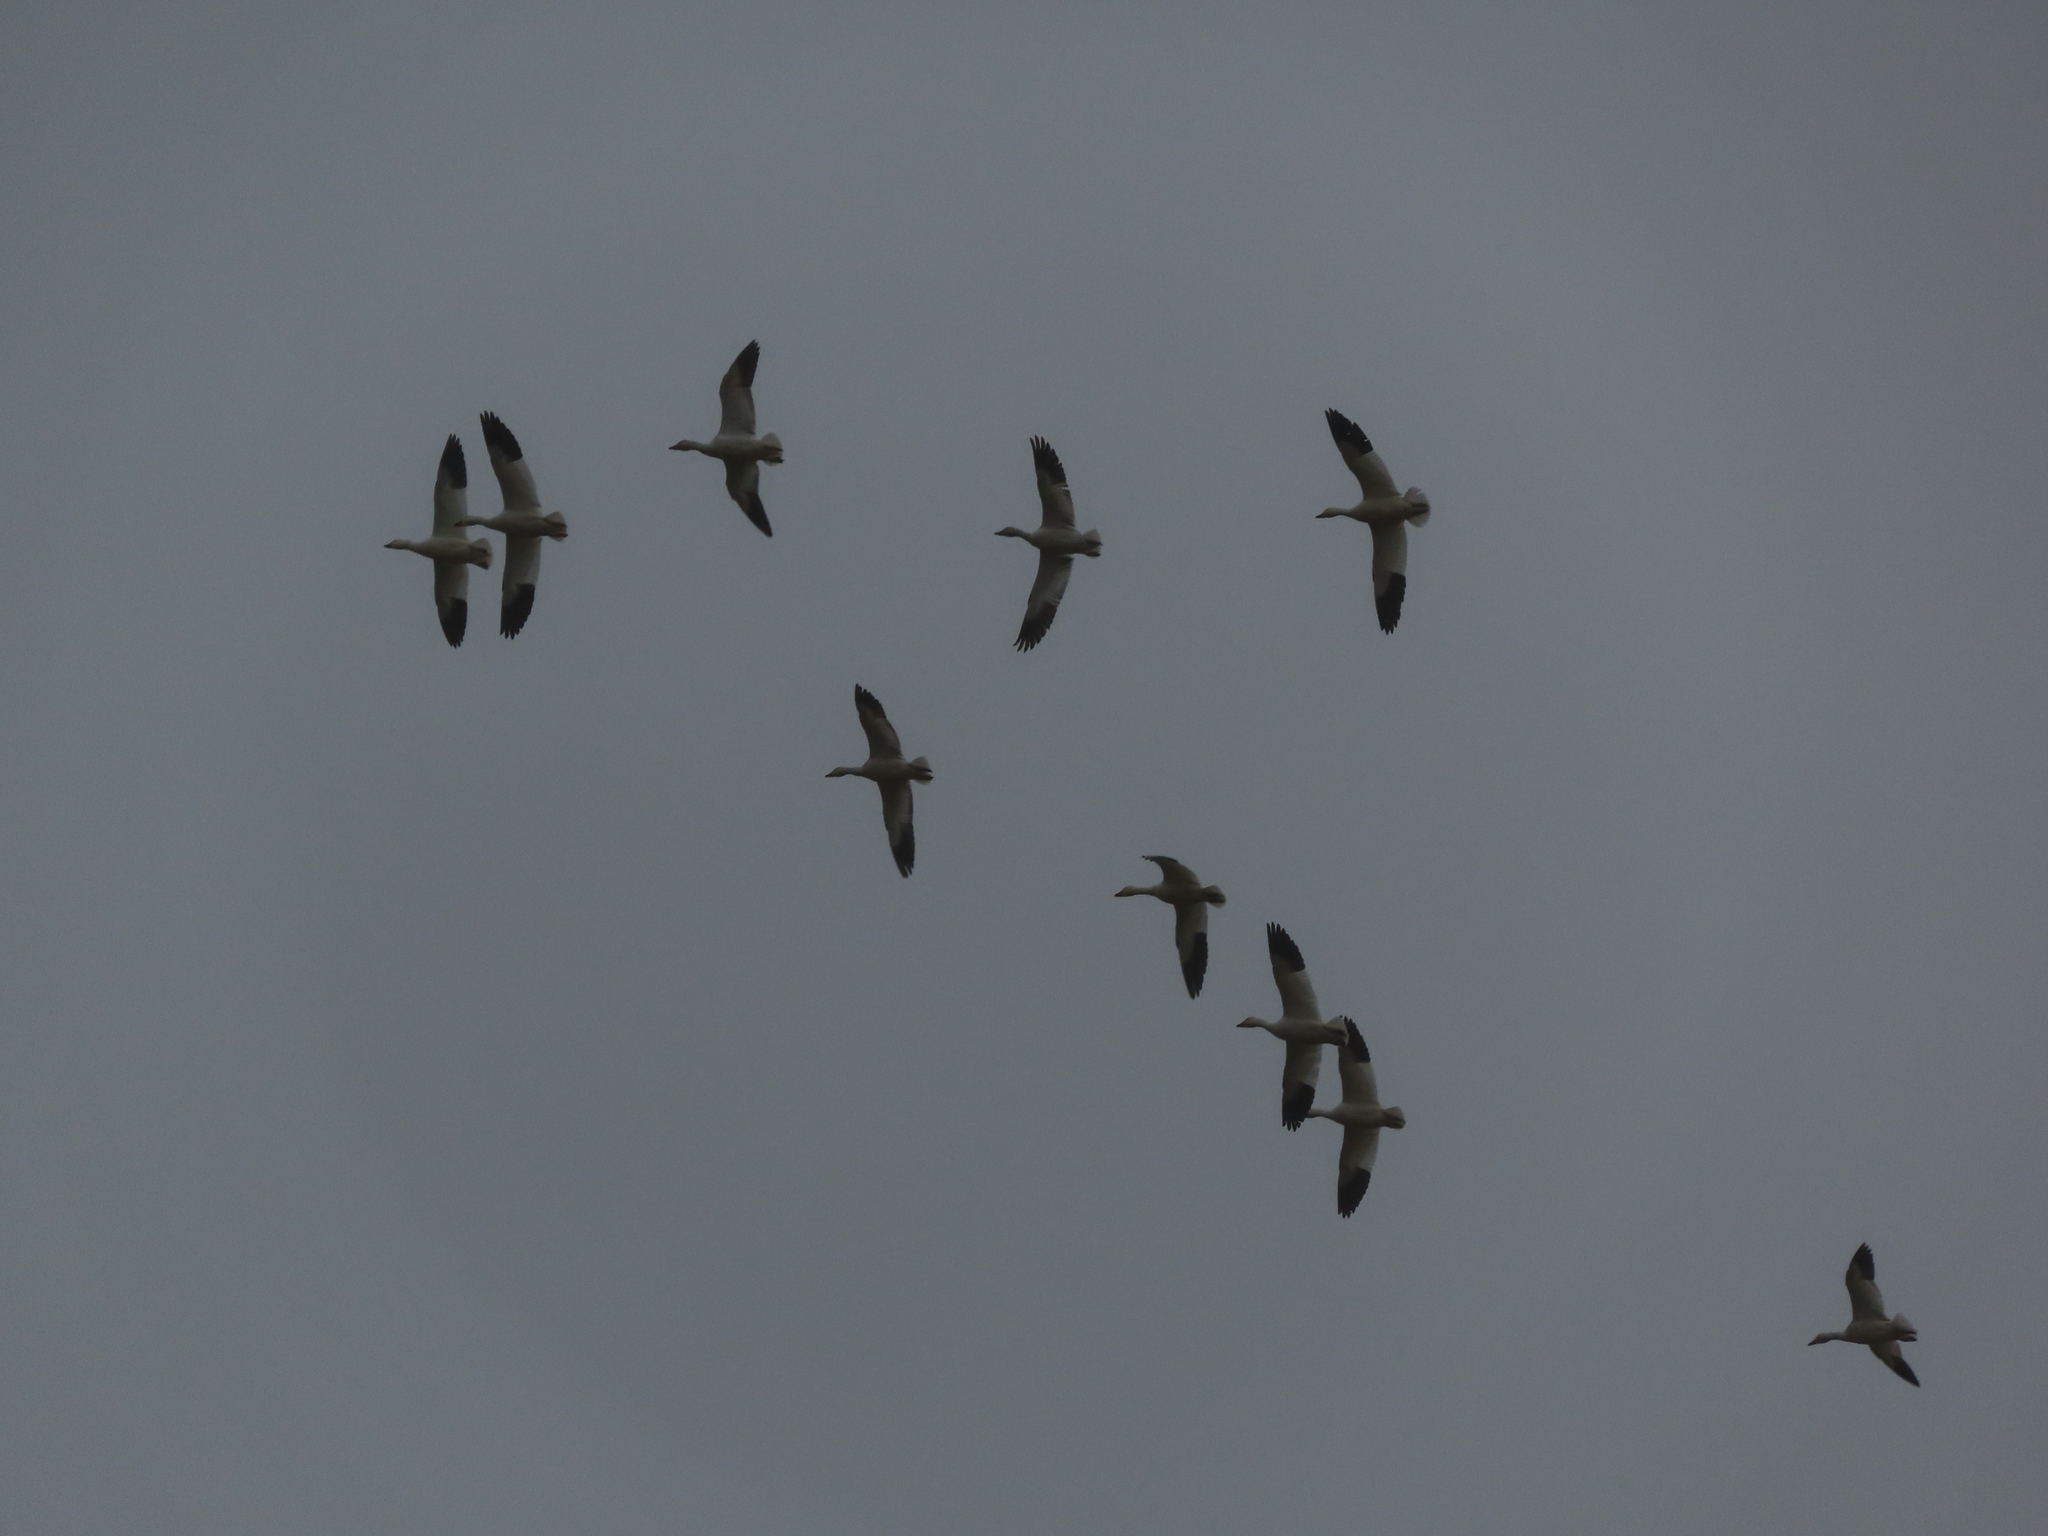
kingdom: Animalia
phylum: Chordata
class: Aves
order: Anseriformes
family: Anatidae
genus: Anser
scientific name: Anser caerulescens
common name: Snow goose
